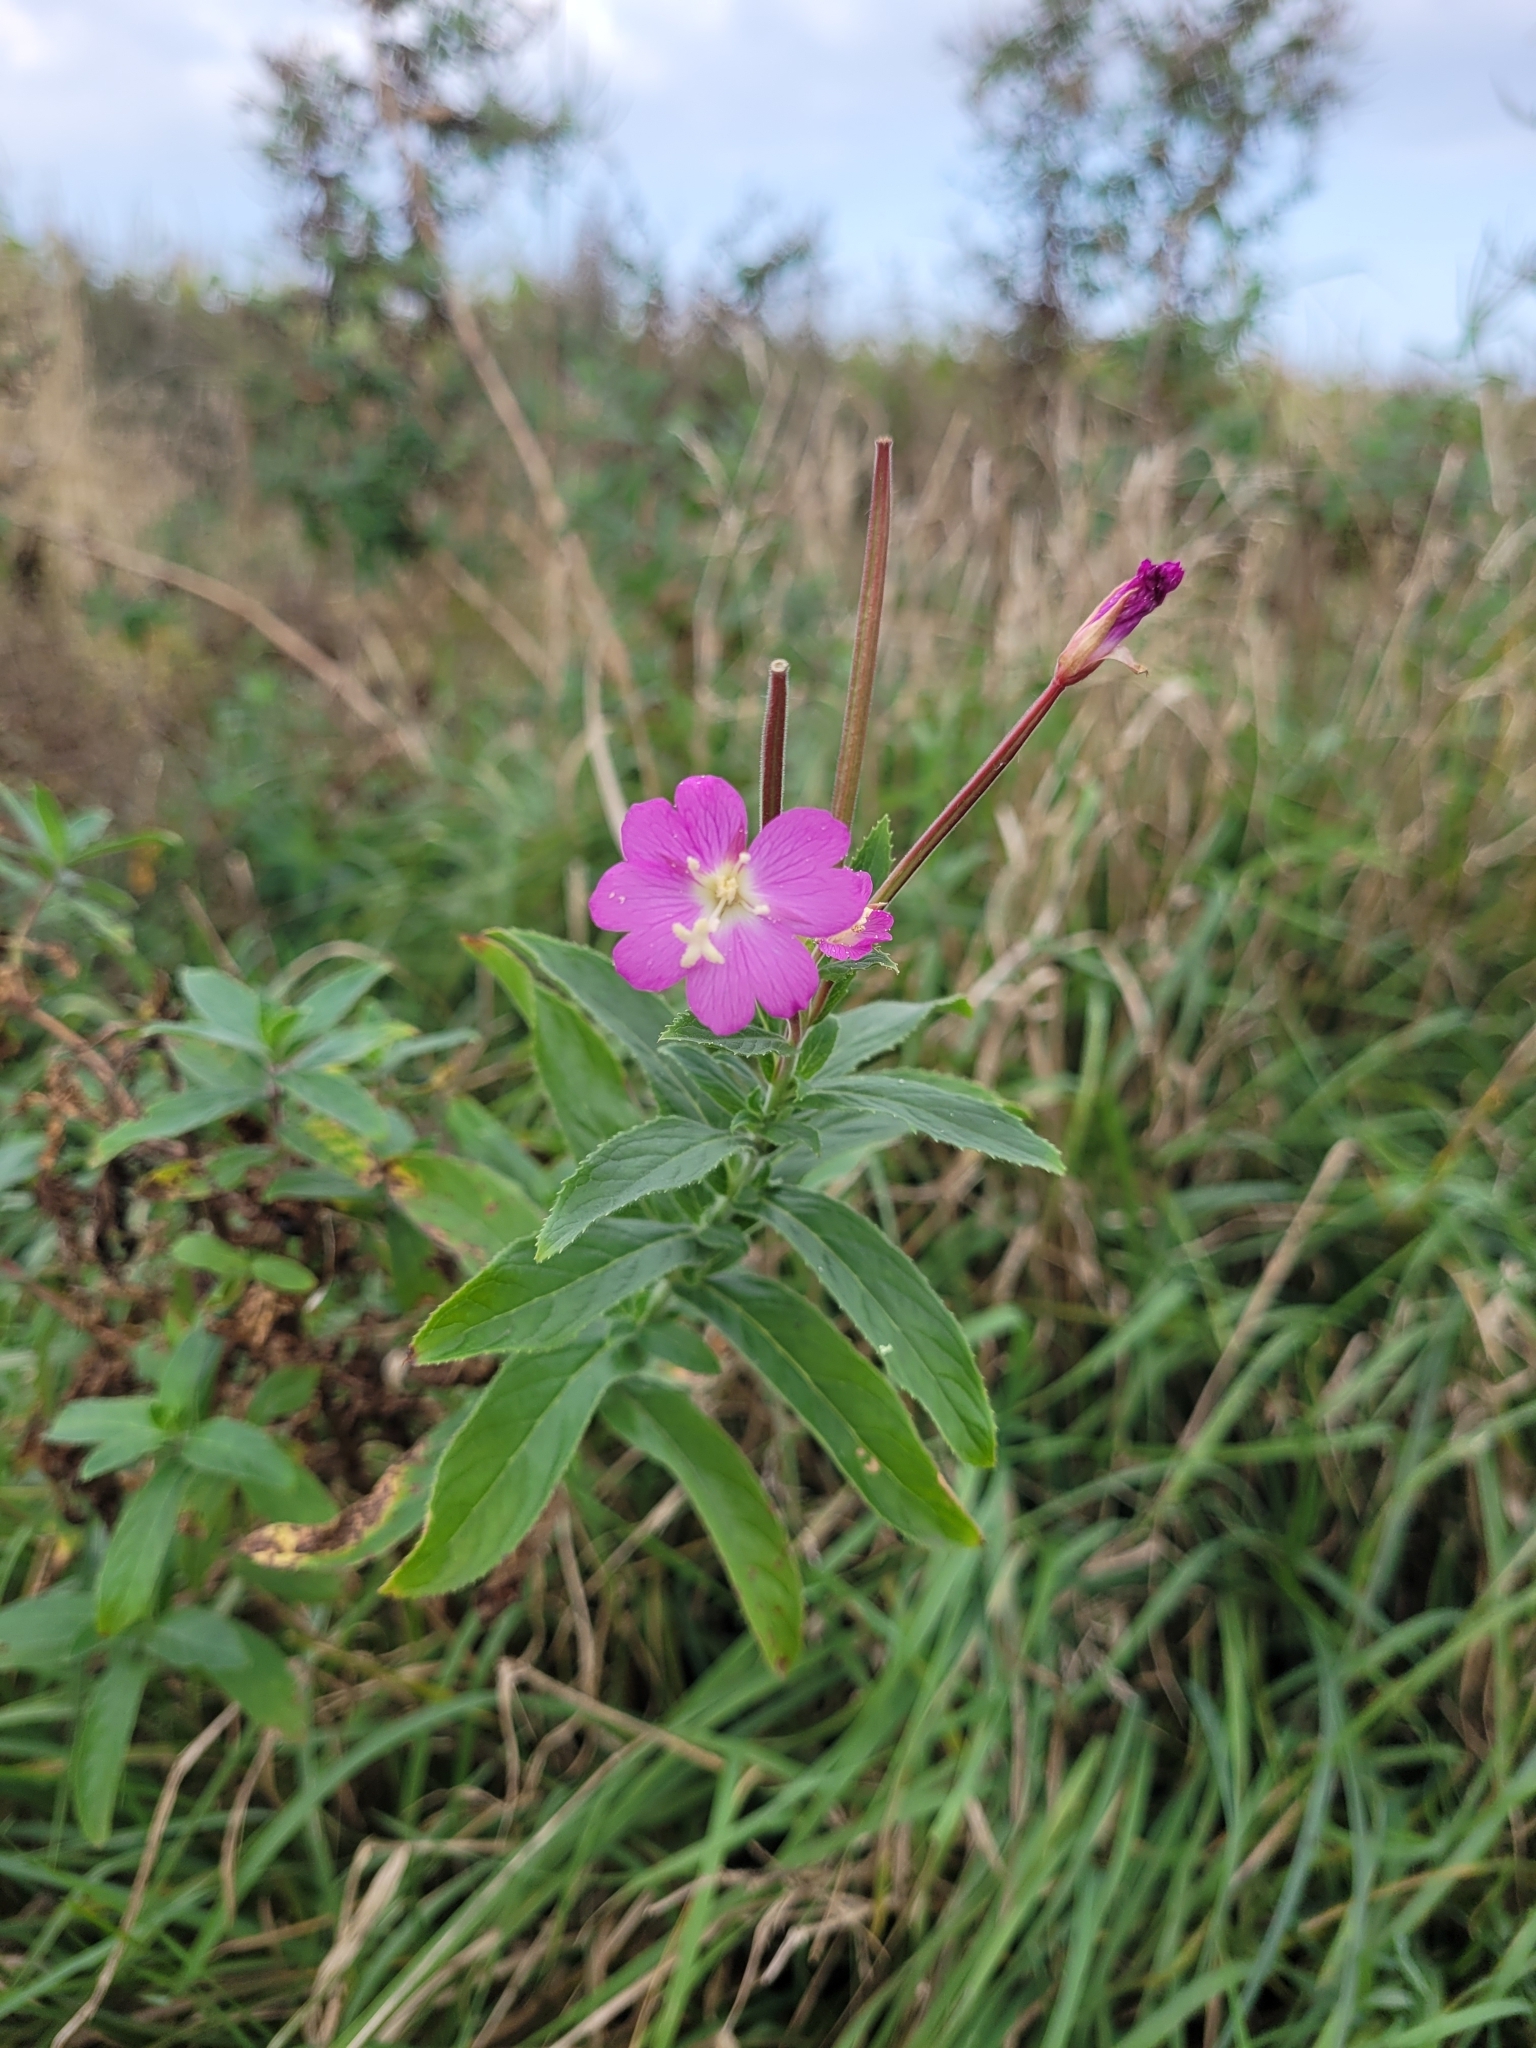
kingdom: Plantae
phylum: Tracheophyta
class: Magnoliopsida
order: Myrtales
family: Onagraceae
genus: Epilobium
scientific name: Epilobium hirsutum
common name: Great willowherb
